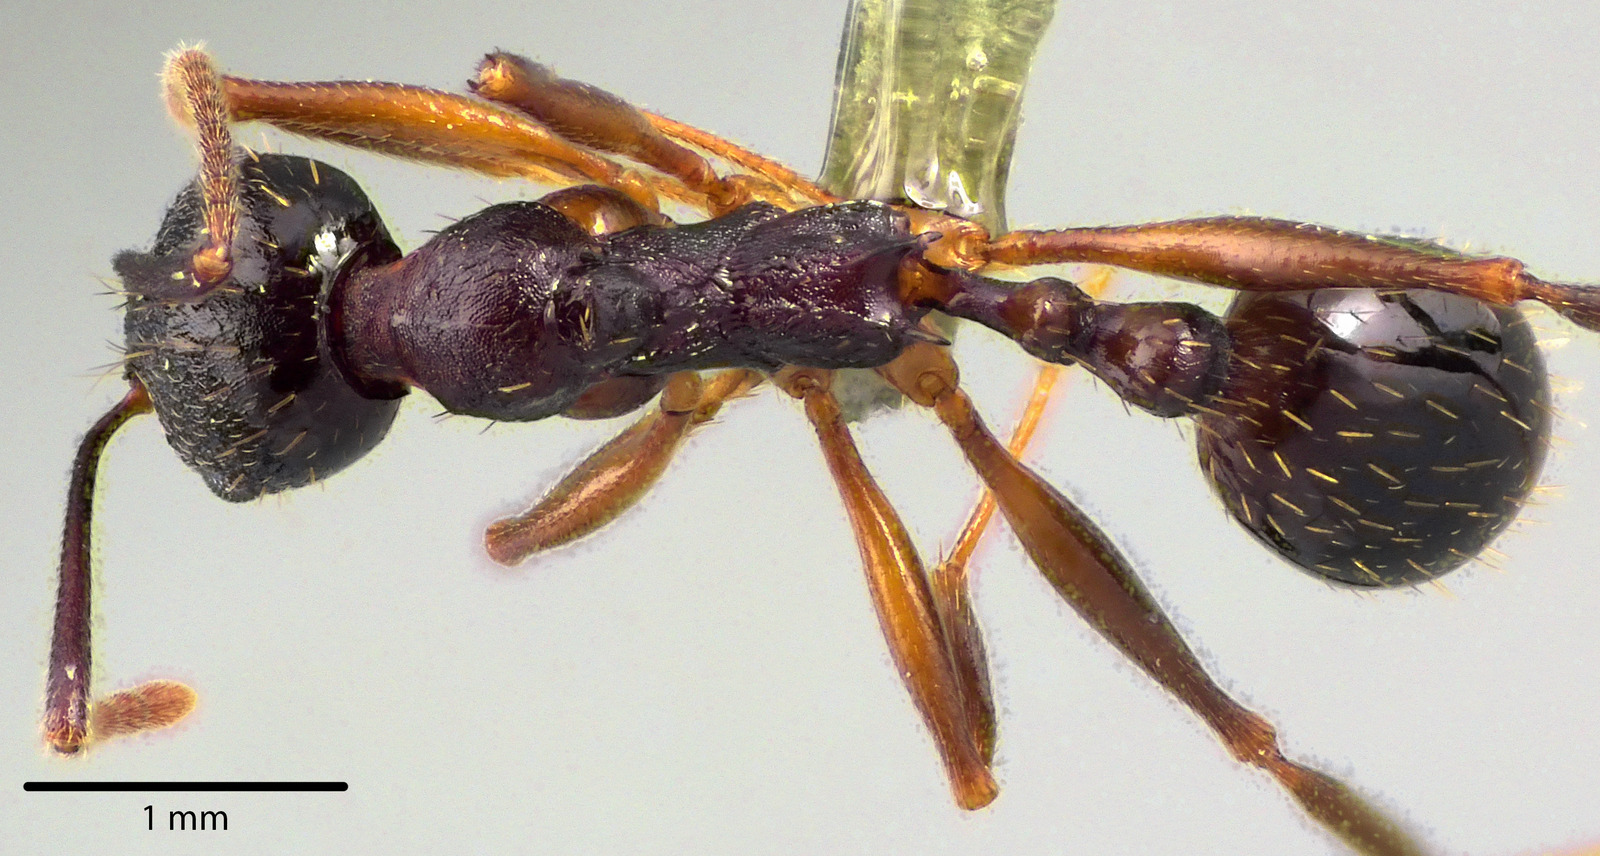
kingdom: Animalia
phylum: Arthropoda
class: Insecta
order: Hymenoptera
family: Formicidae
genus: Aphaenogaster
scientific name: Aphaenogaster picea
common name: Pitch-black collared ant
